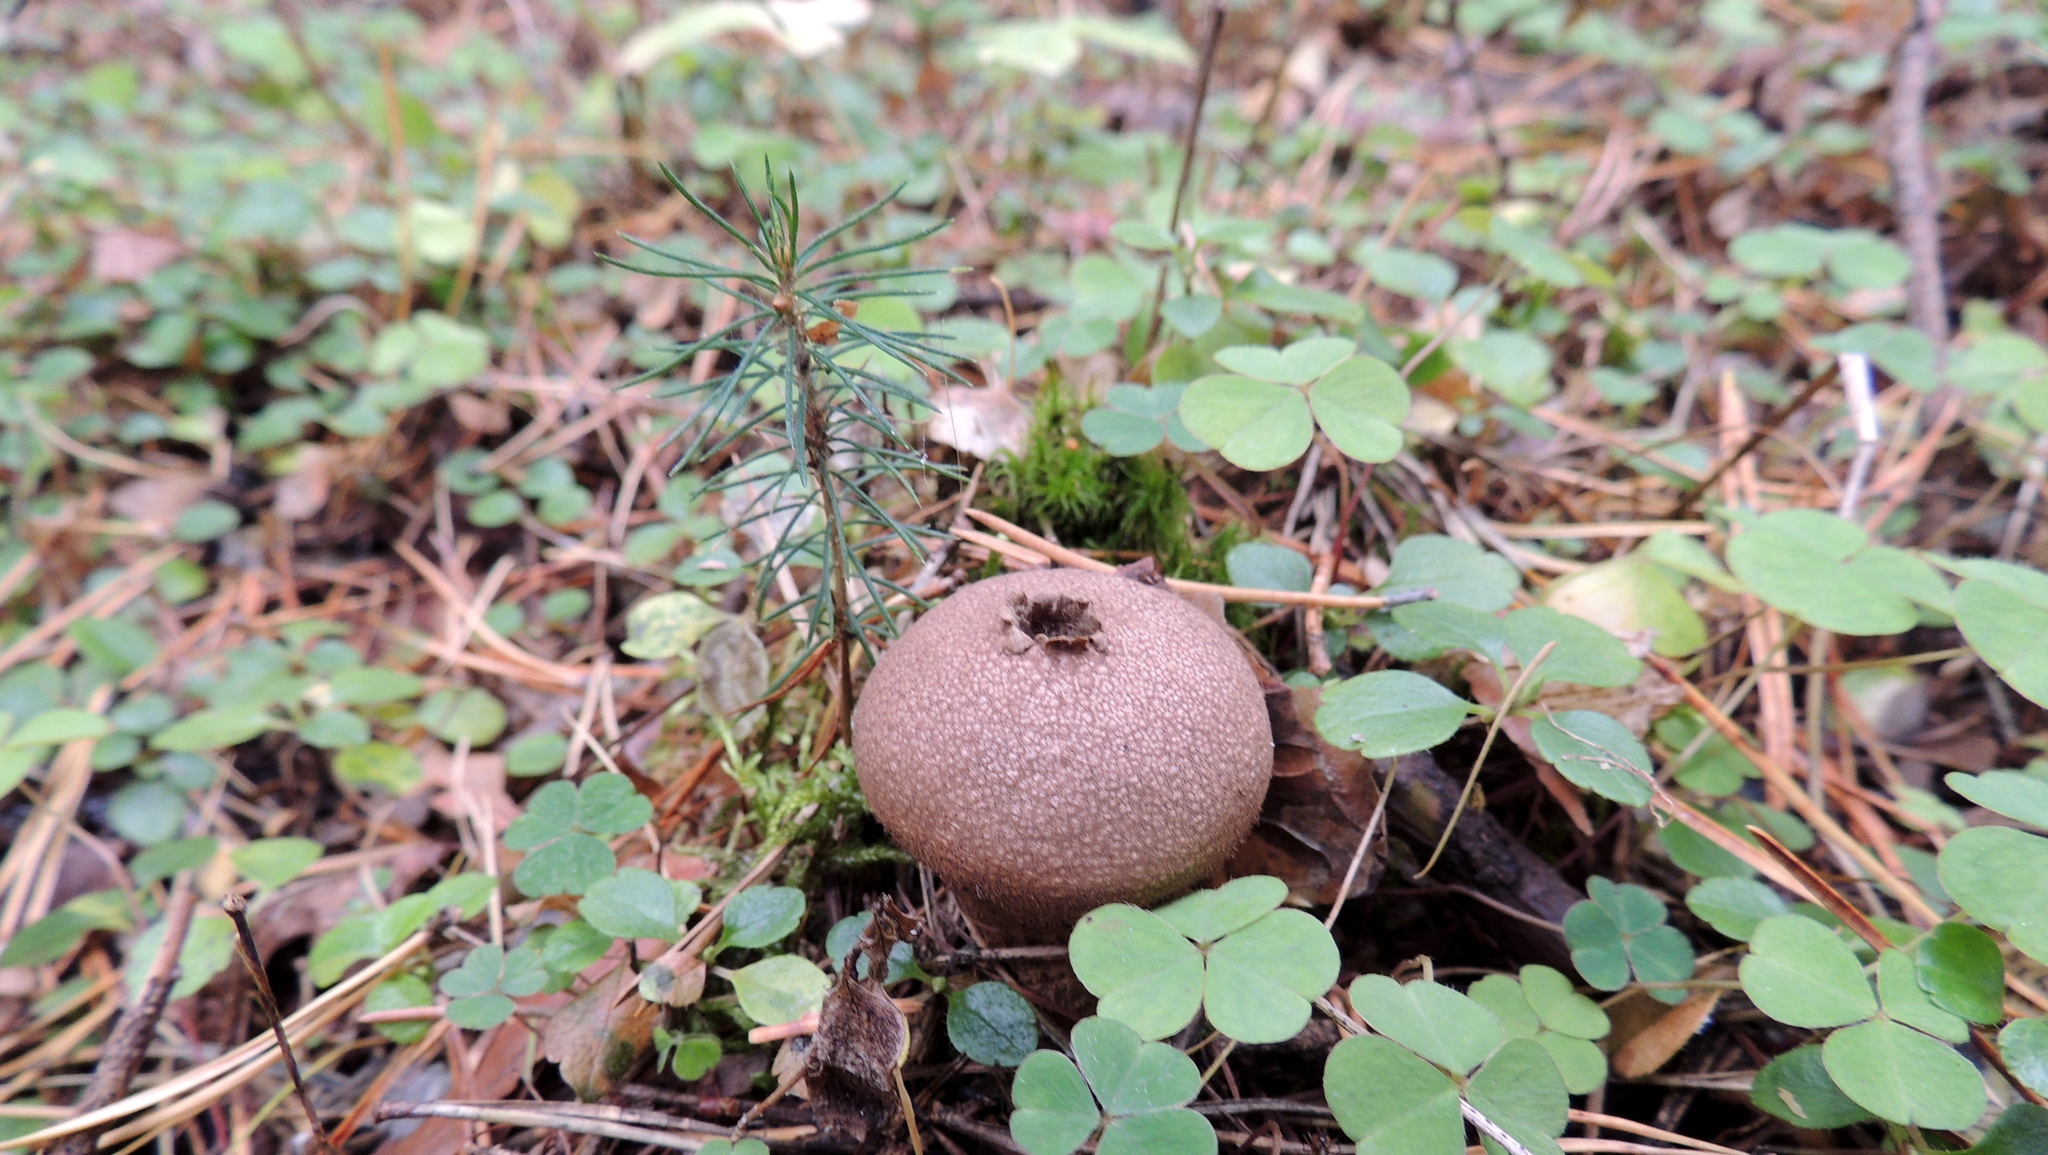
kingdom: Fungi
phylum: Basidiomycota
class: Agaricomycetes
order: Agaricales
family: Lycoperdaceae
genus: Lycoperdon
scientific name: Lycoperdon umbrinum
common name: Umber-brown puffball
